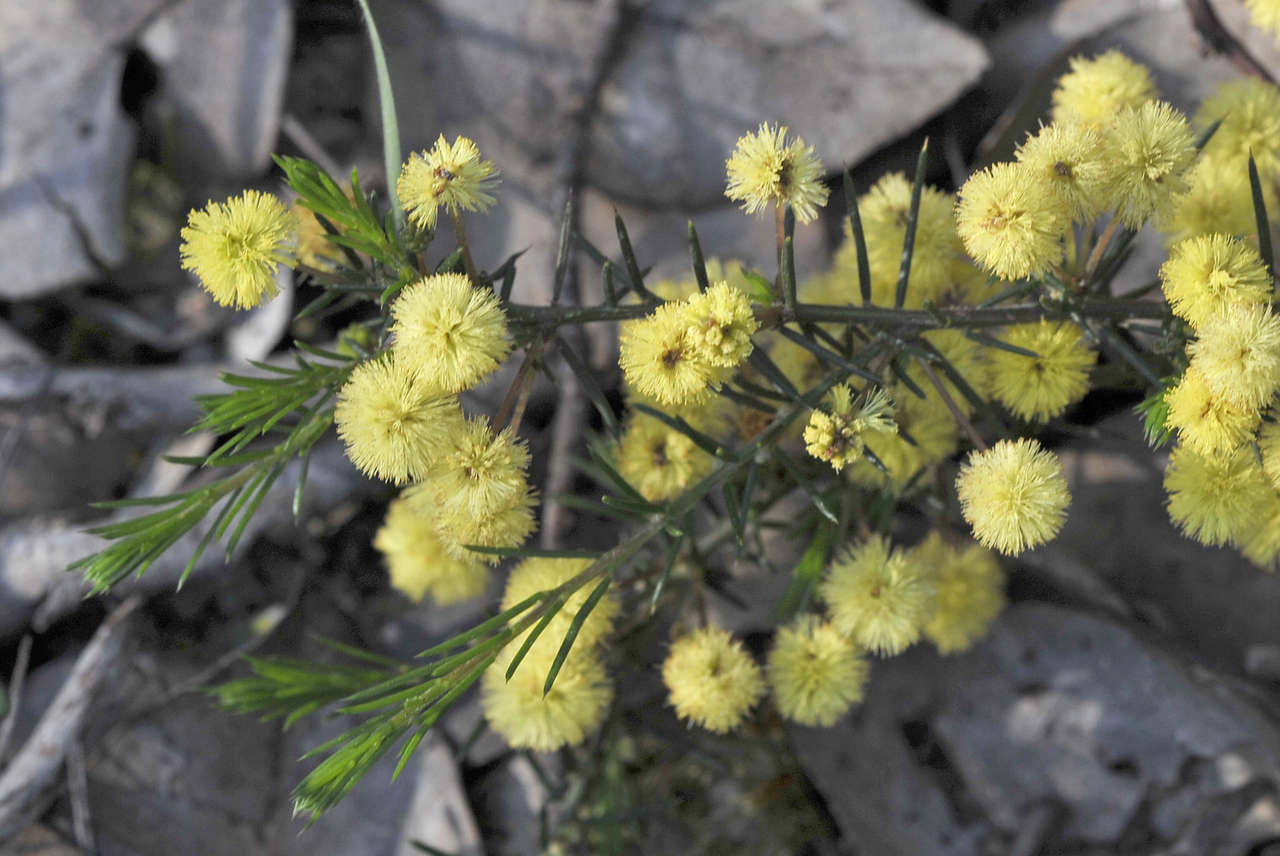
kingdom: Plantae
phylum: Tracheophyta
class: Magnoliopsida
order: Fabales
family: Fabaceae
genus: Acacia
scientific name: Acacia aculeatissima
